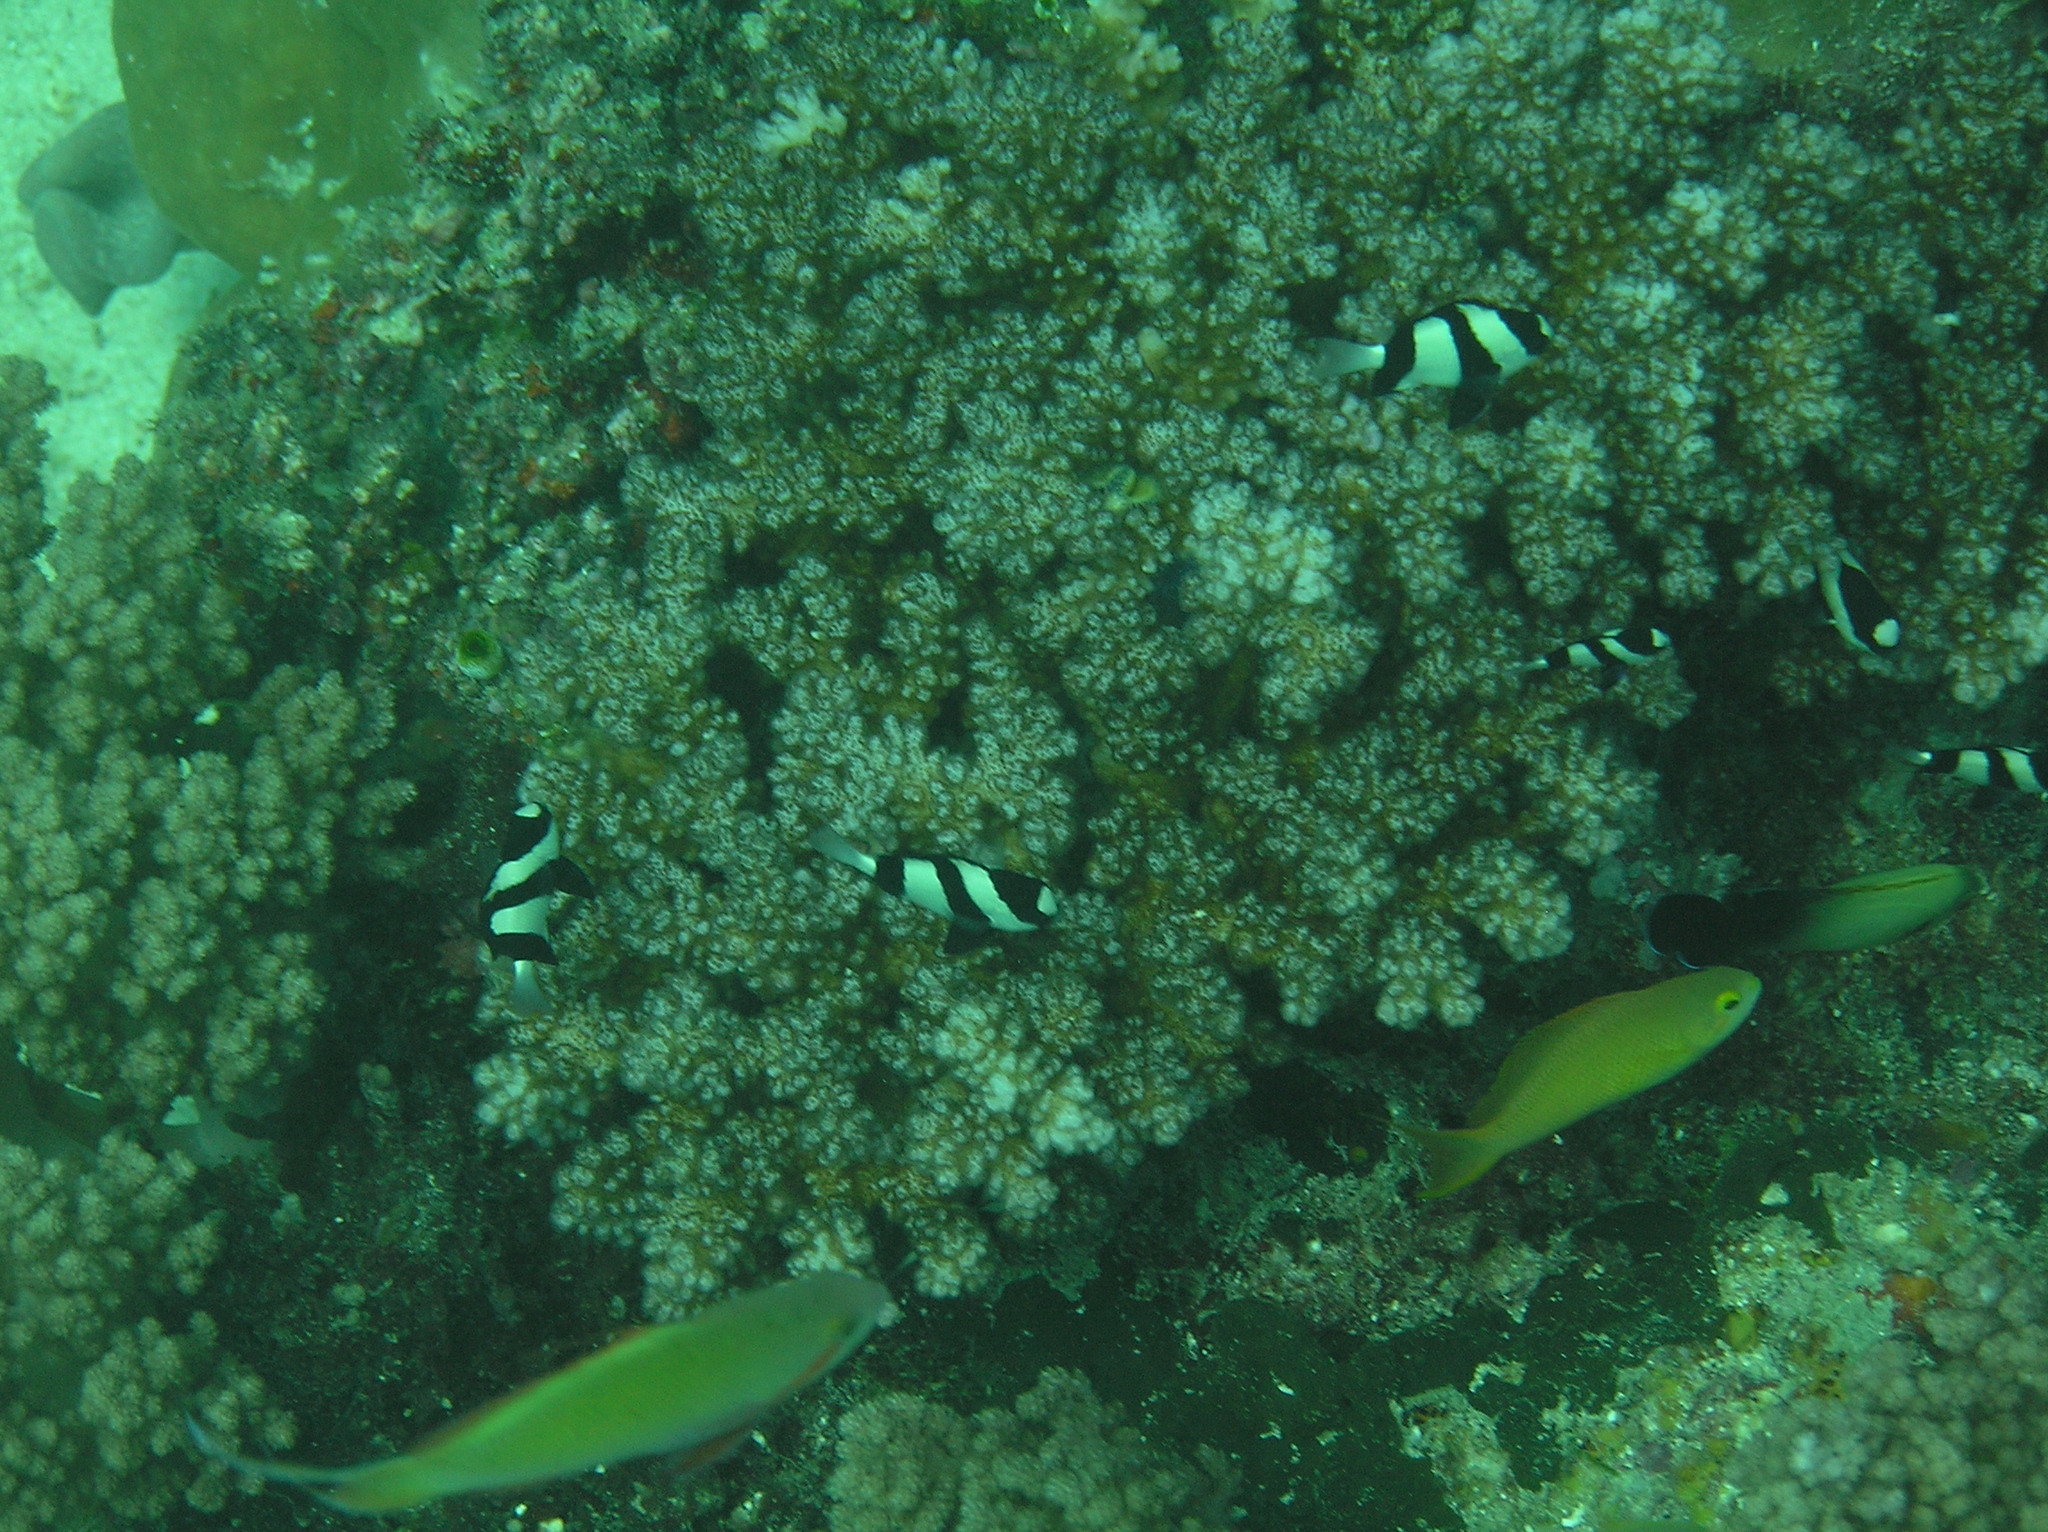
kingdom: Animalia
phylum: Chordata
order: Perciformes
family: Pomacentridae
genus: Dascyllus
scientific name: Dascyllus aruanus
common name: Humbug dascyllus
